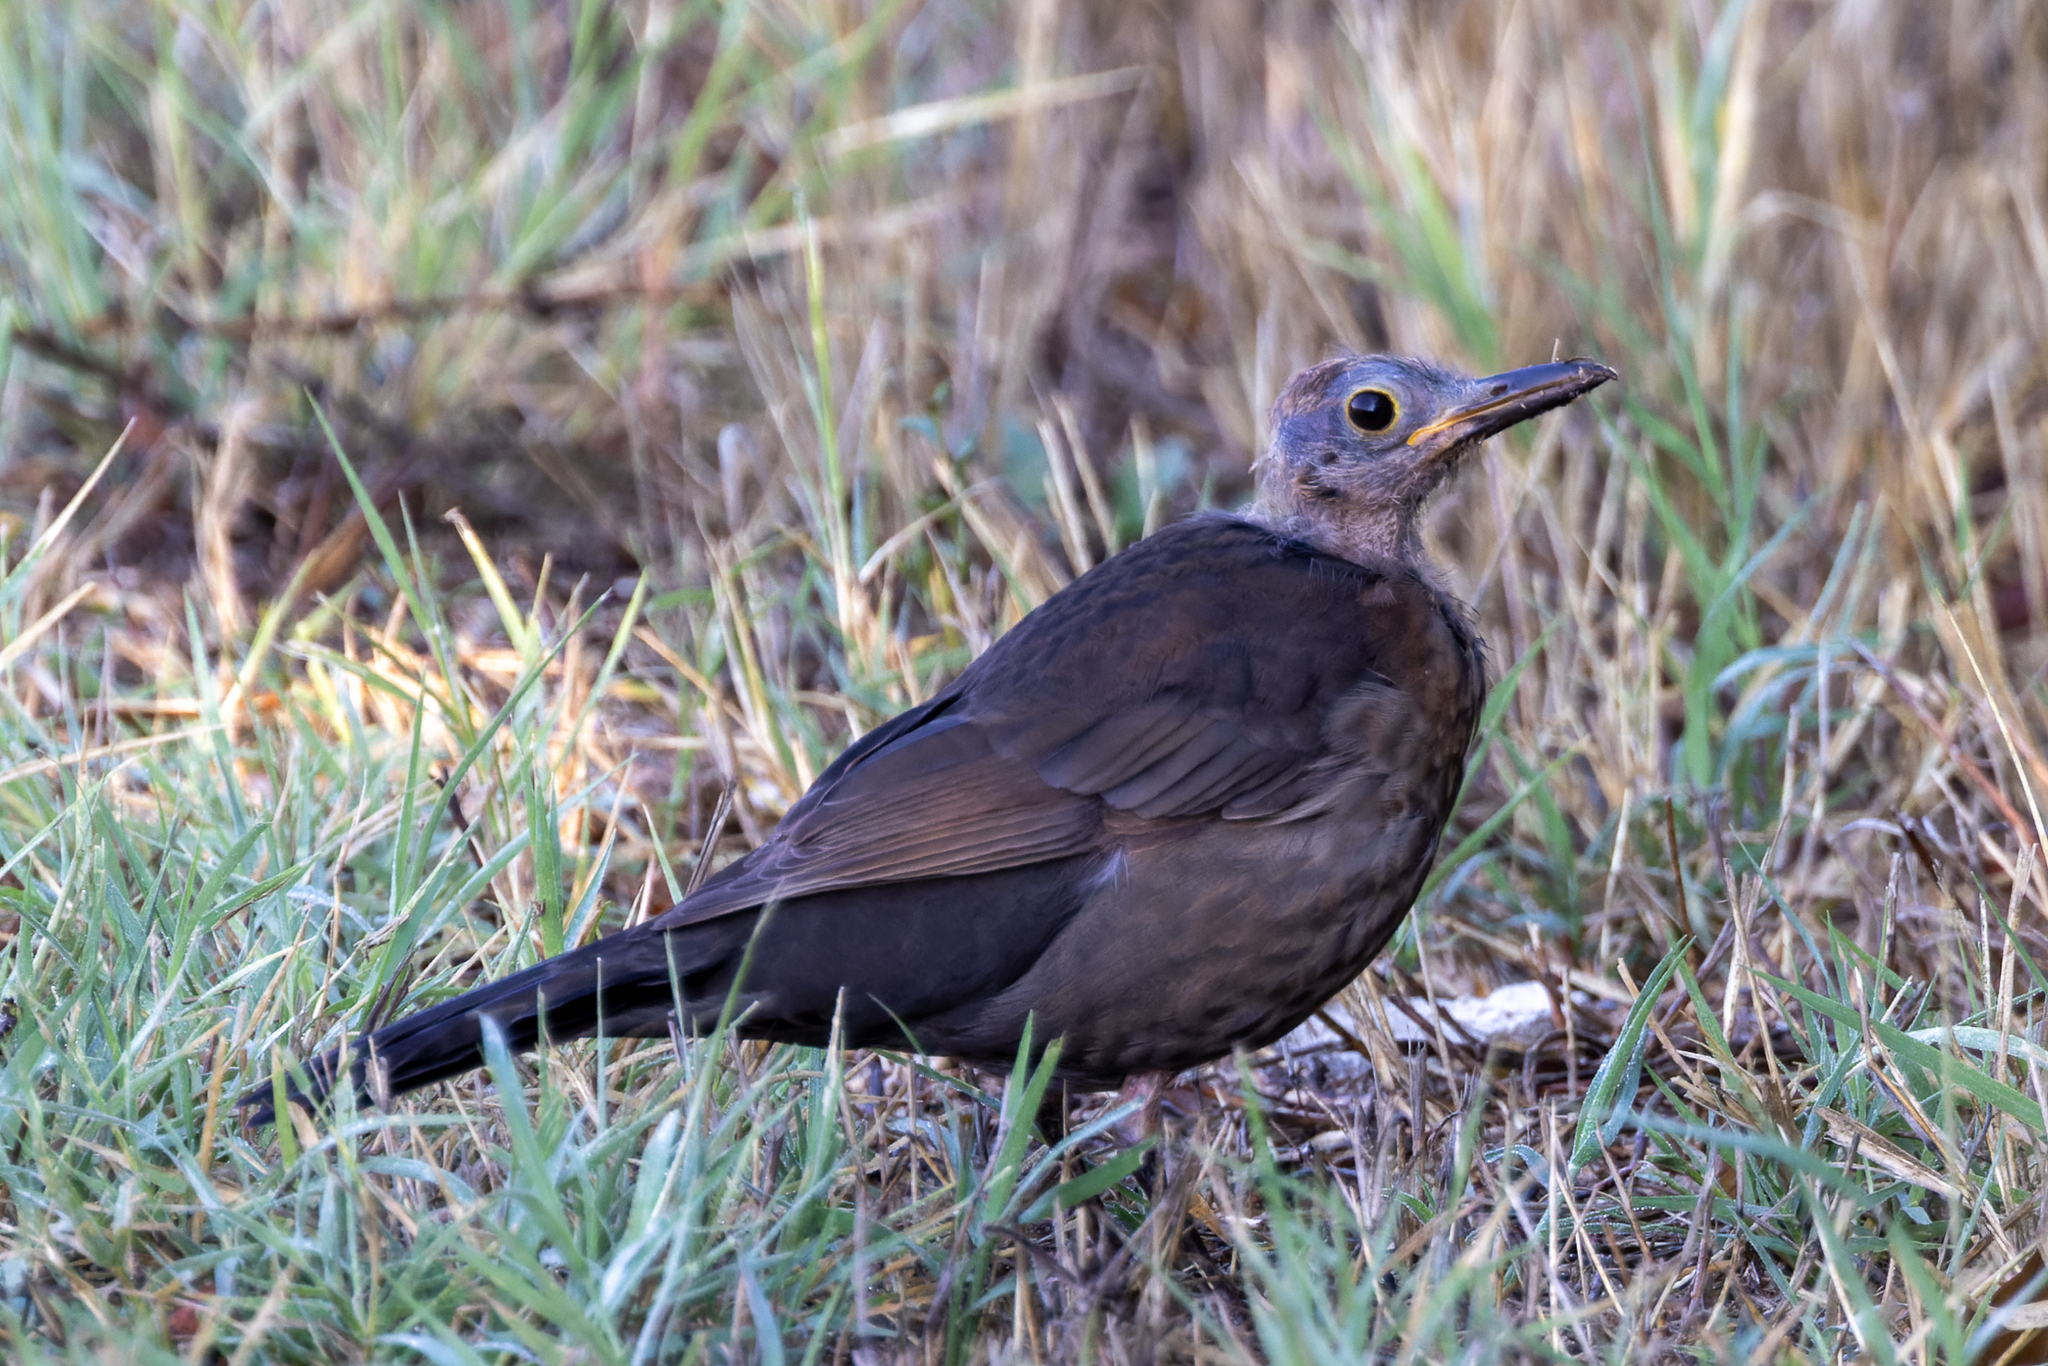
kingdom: Animalia
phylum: Chordata
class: Aves
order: Passeriformes
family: Turdidae
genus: Turdus
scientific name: Turdus merula
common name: Common blackbird
